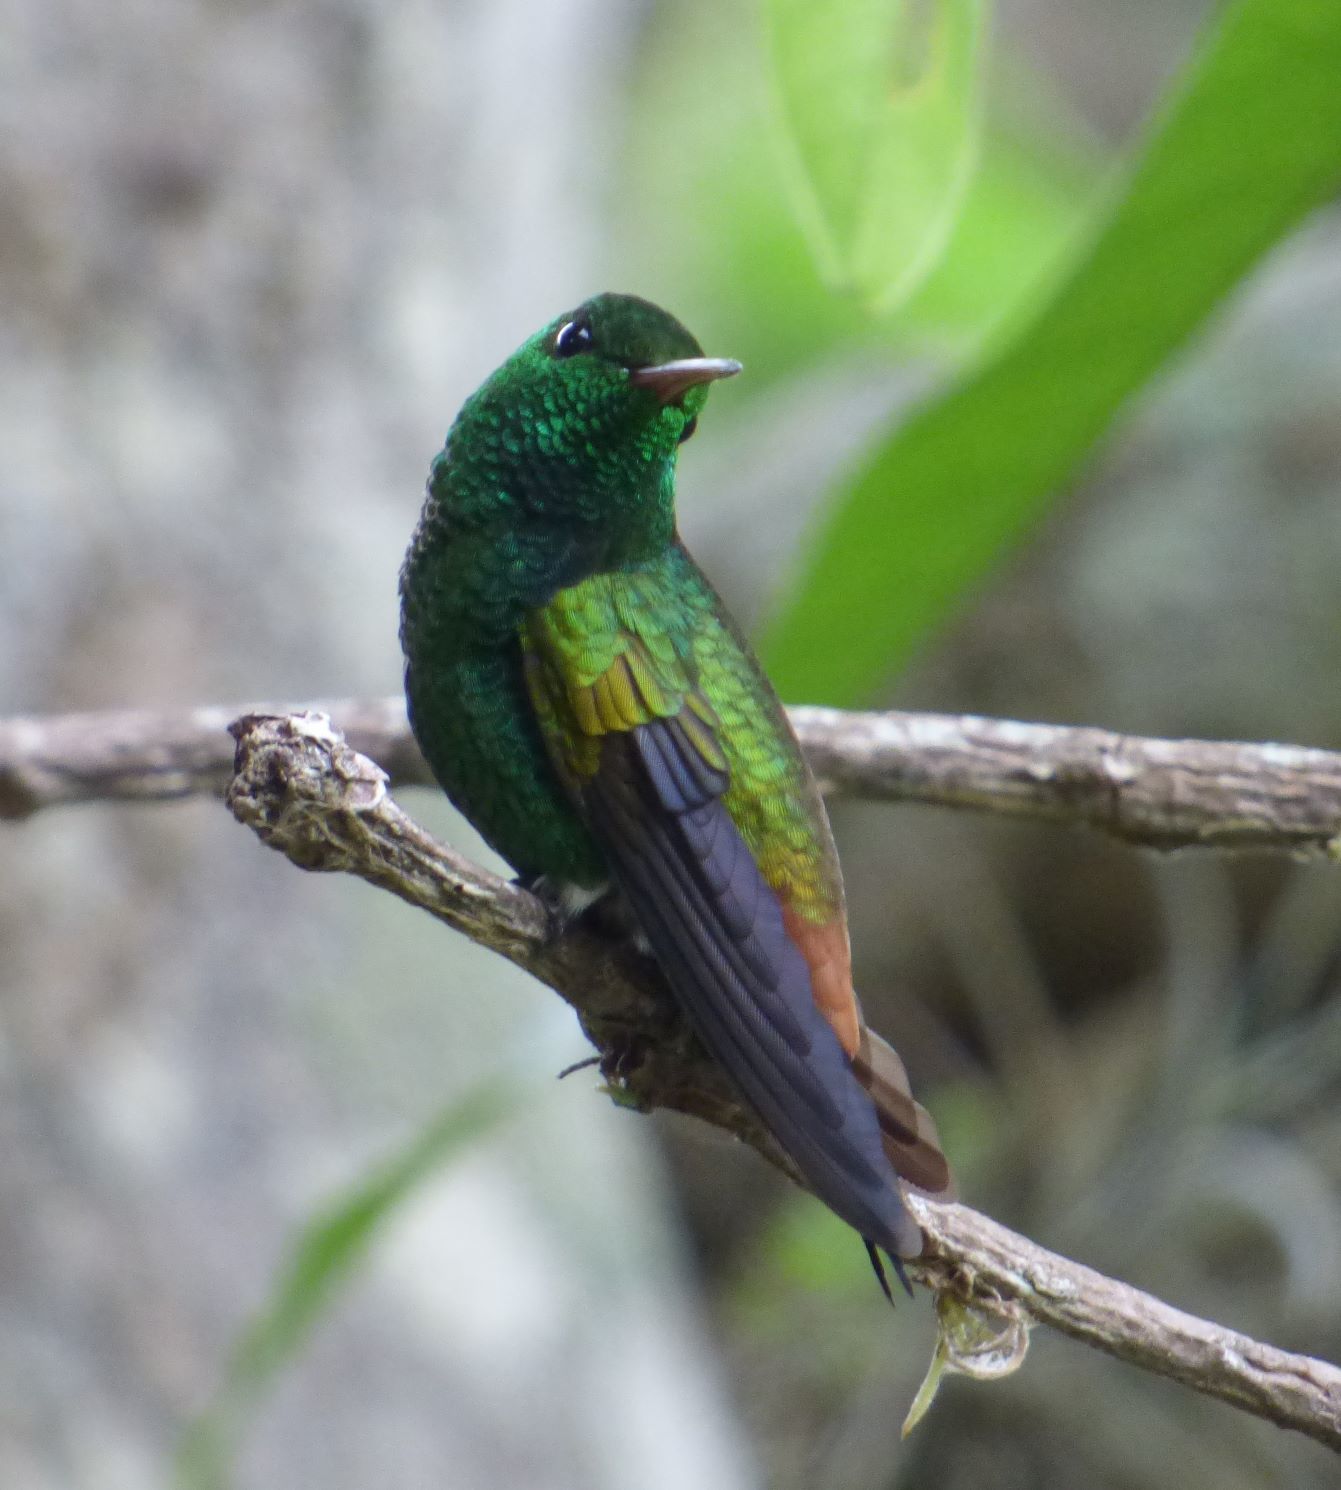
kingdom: Animalia
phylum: Chordata
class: Aves
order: Apodiformes
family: Trochilidae
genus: Saucerottia
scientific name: Saucerottia tobaci
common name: Copper-rumped hummingbird
